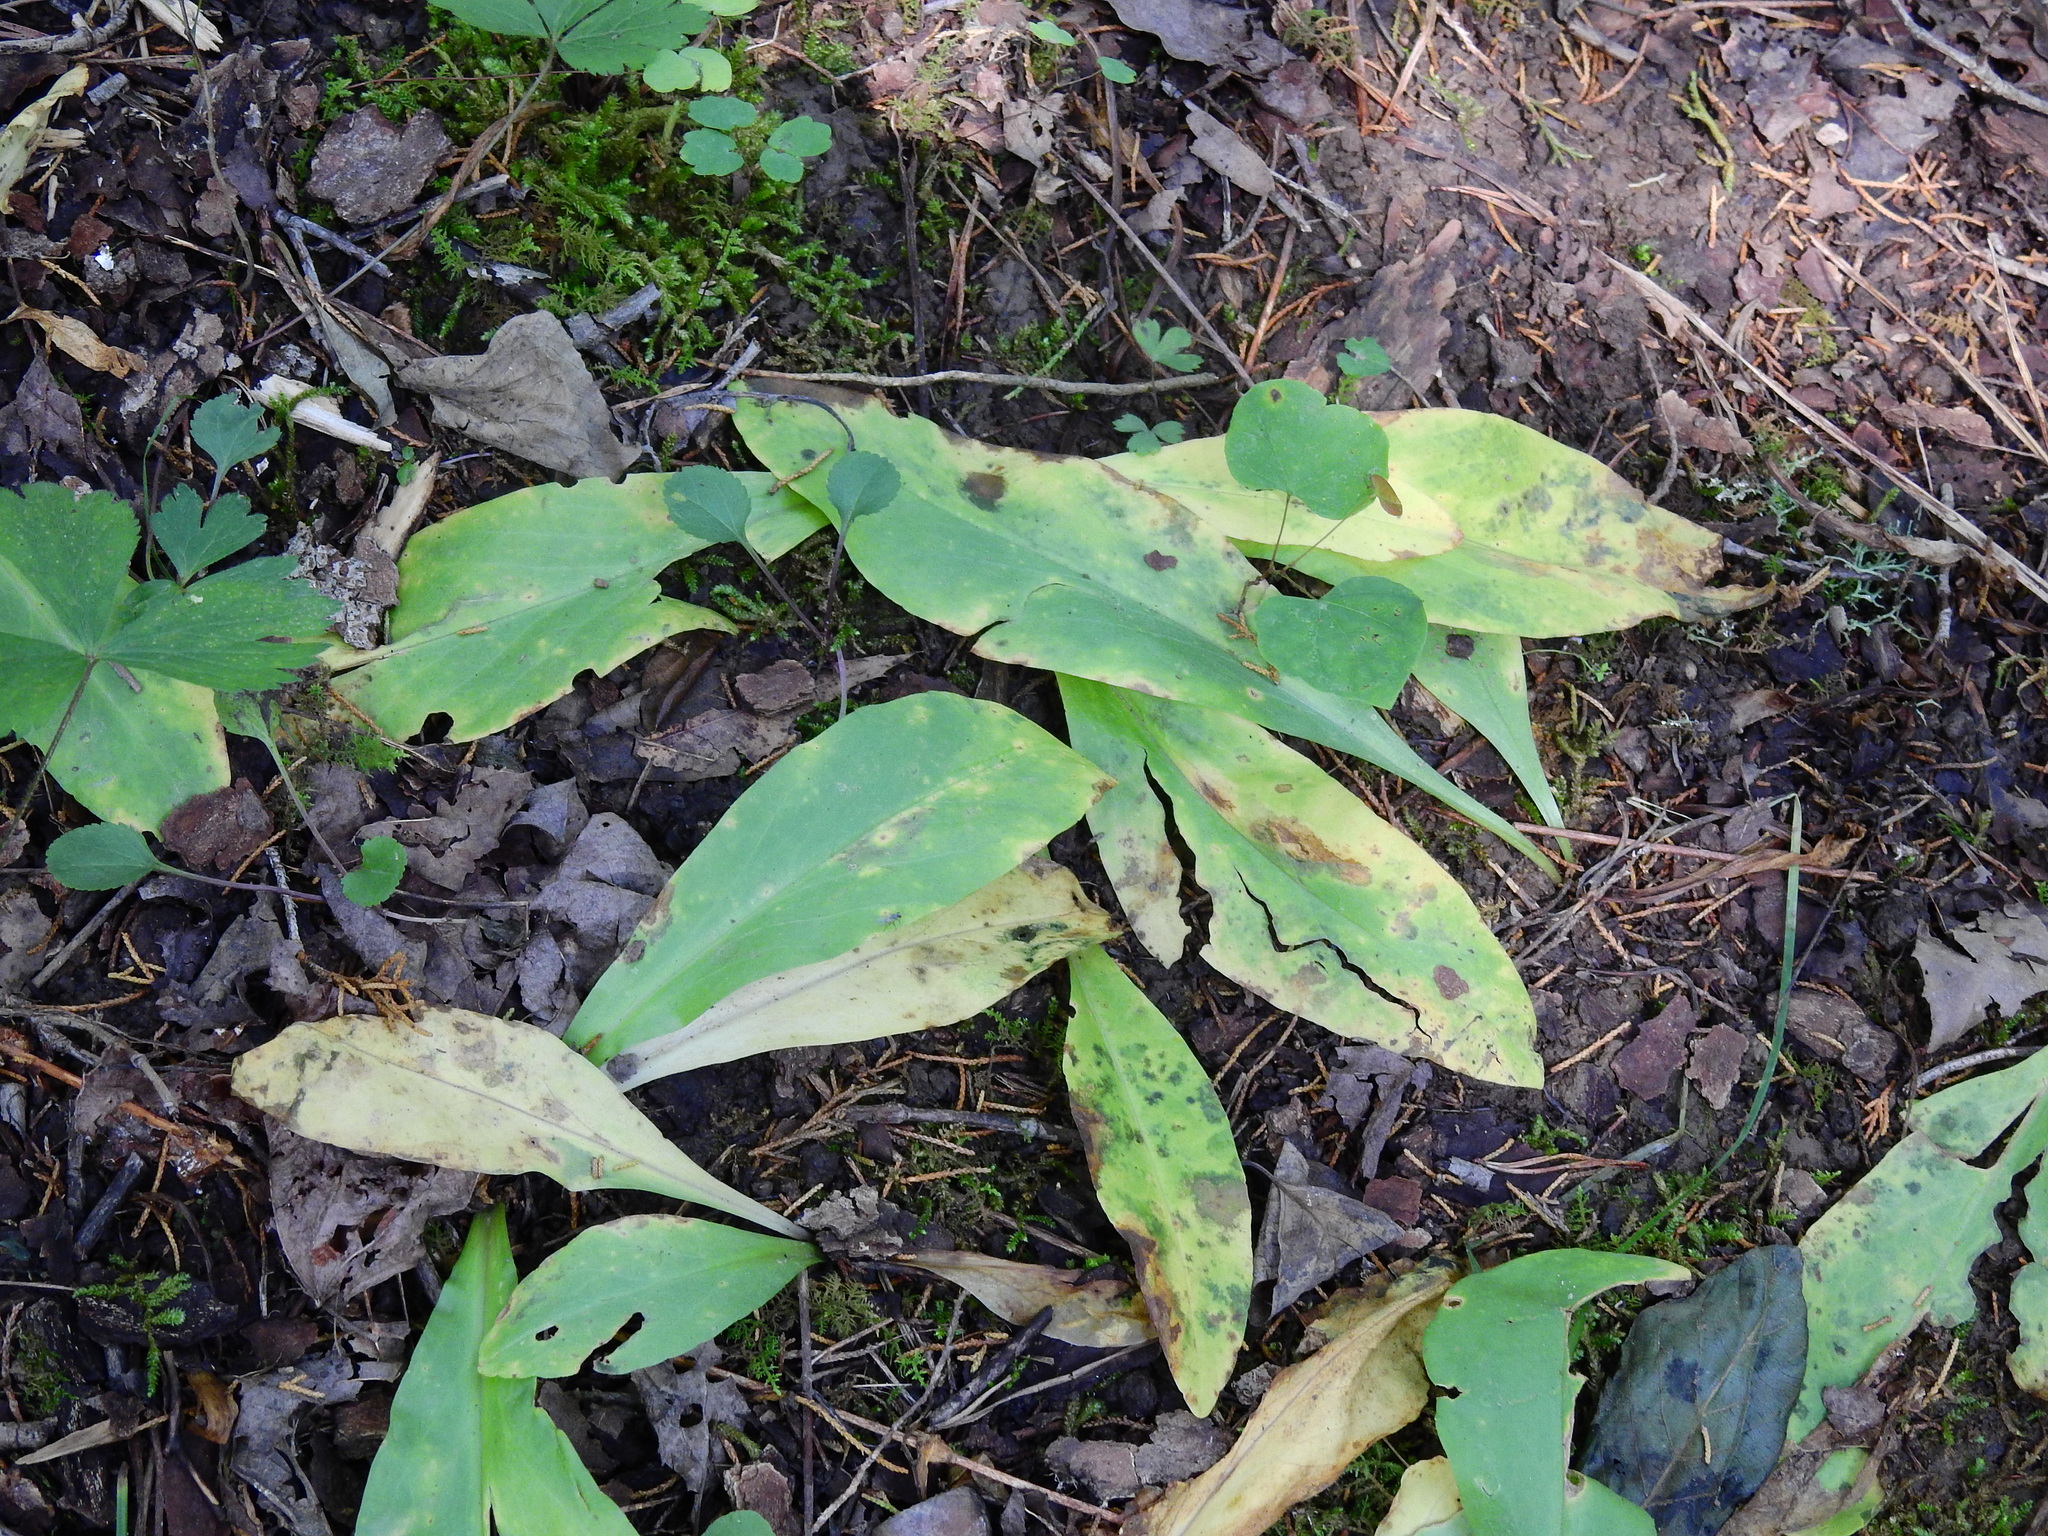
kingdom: Plantae
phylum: Tracheophyta
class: Magnoliopsida
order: Gentianales
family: Gentianaceae
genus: Frasera
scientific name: Frasera caroliniensis
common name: American columbo
